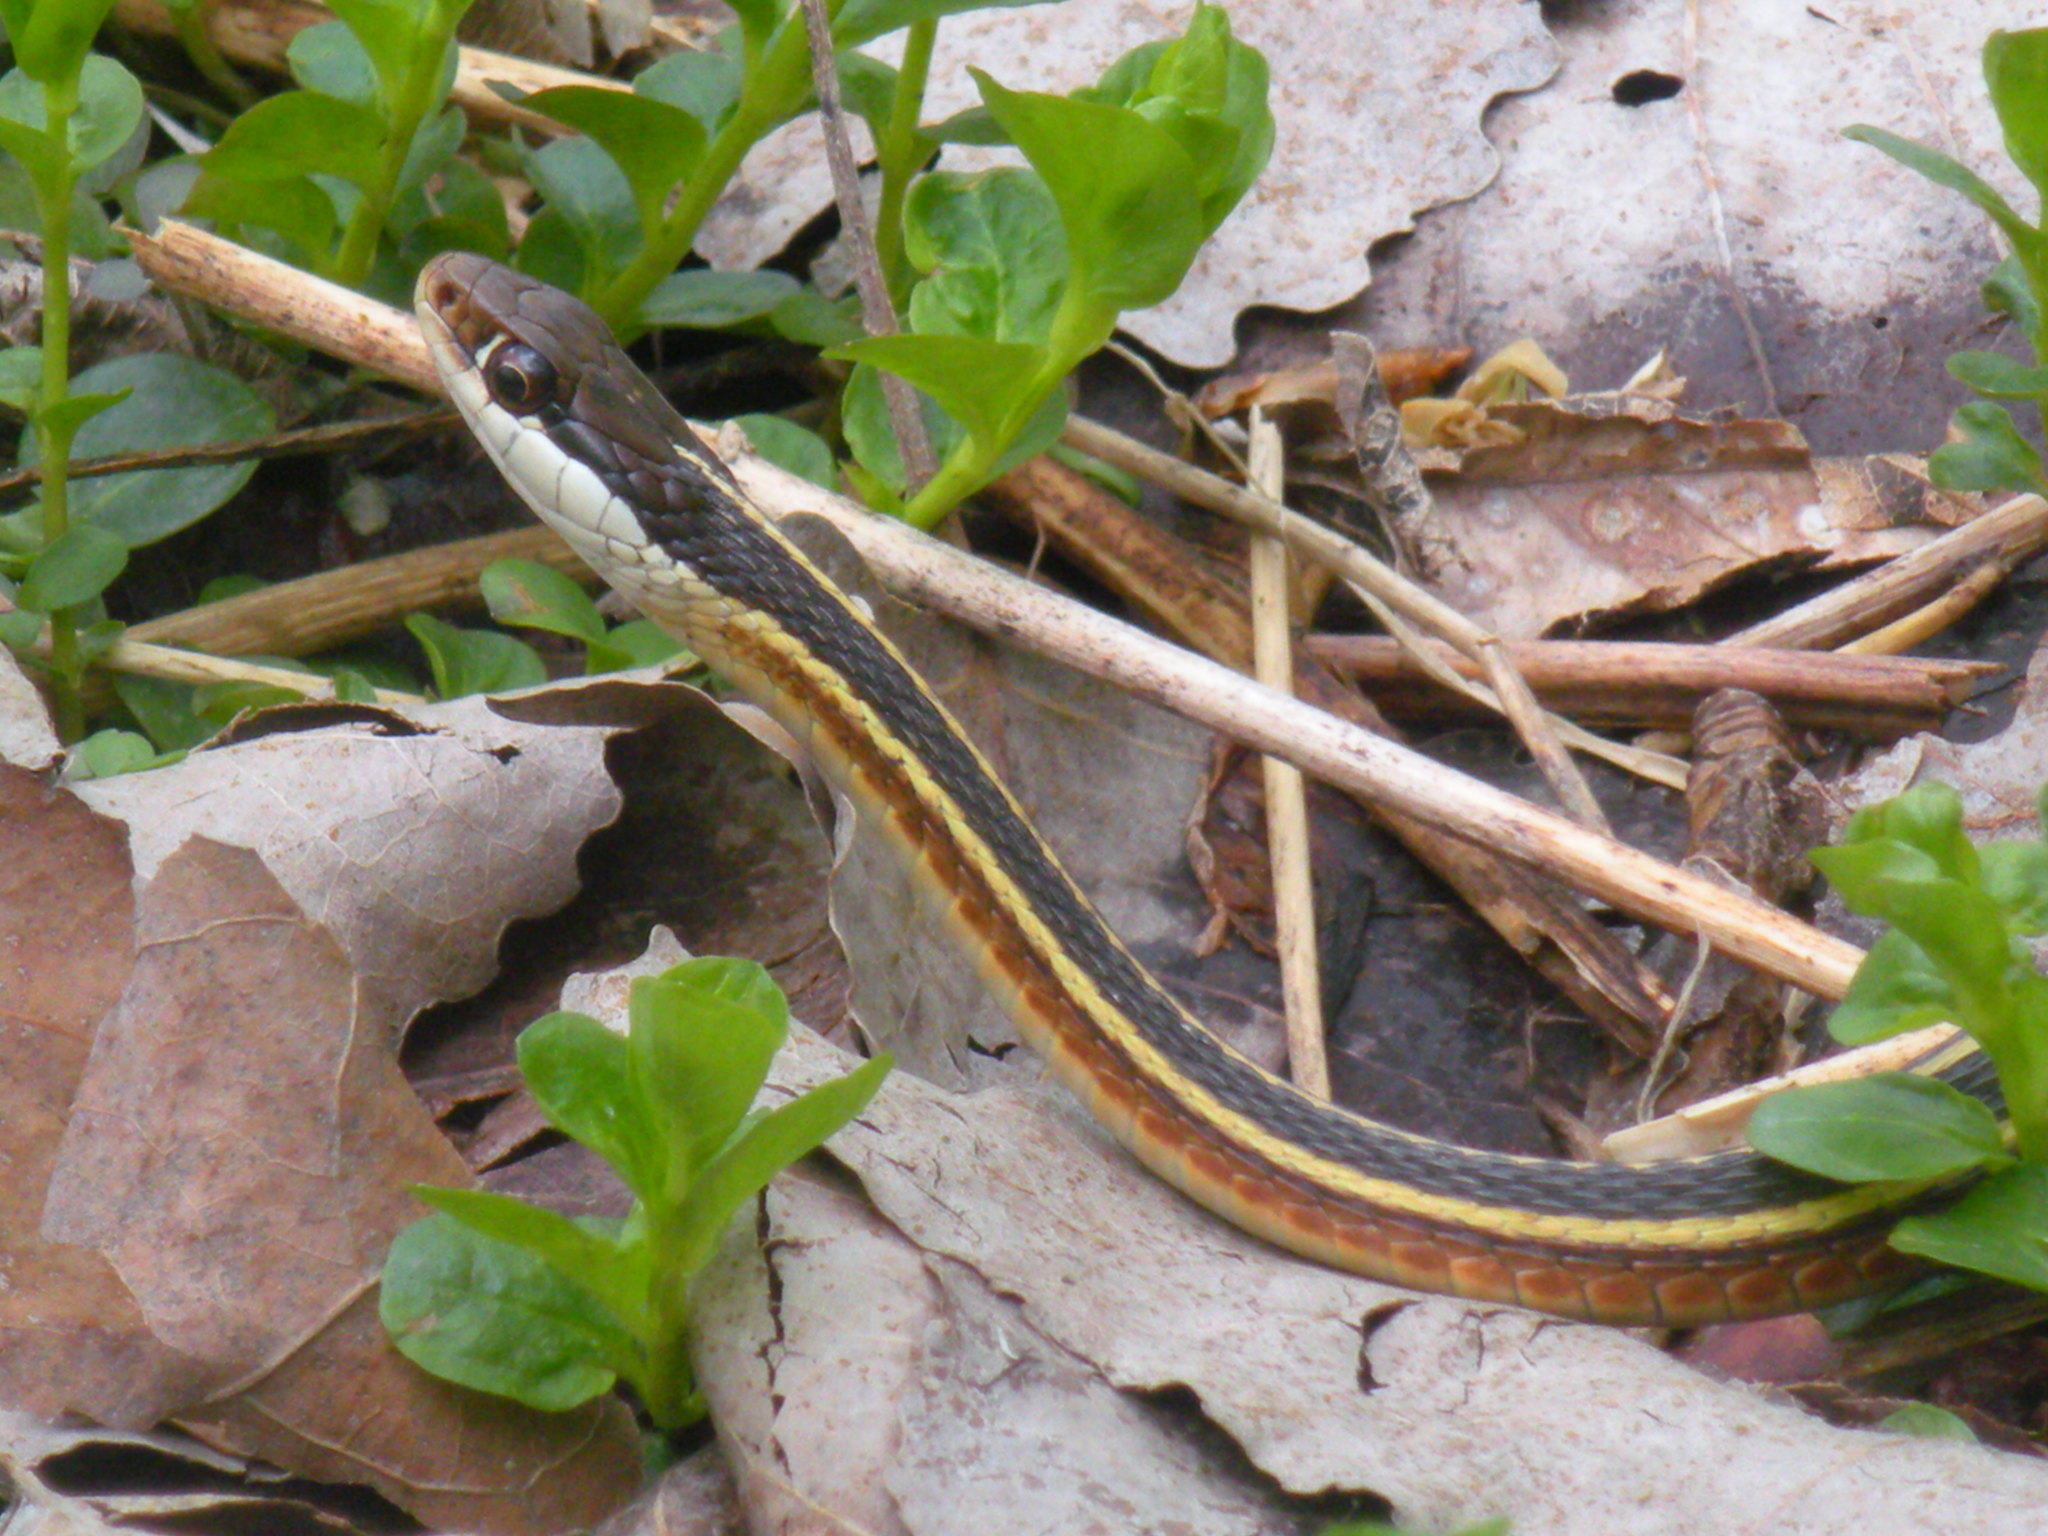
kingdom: Animalia
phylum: Chordata
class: Squamata
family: Colubridae
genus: Thamnophis
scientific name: Thamnophis saurita
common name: Eastern ribbonsnake
